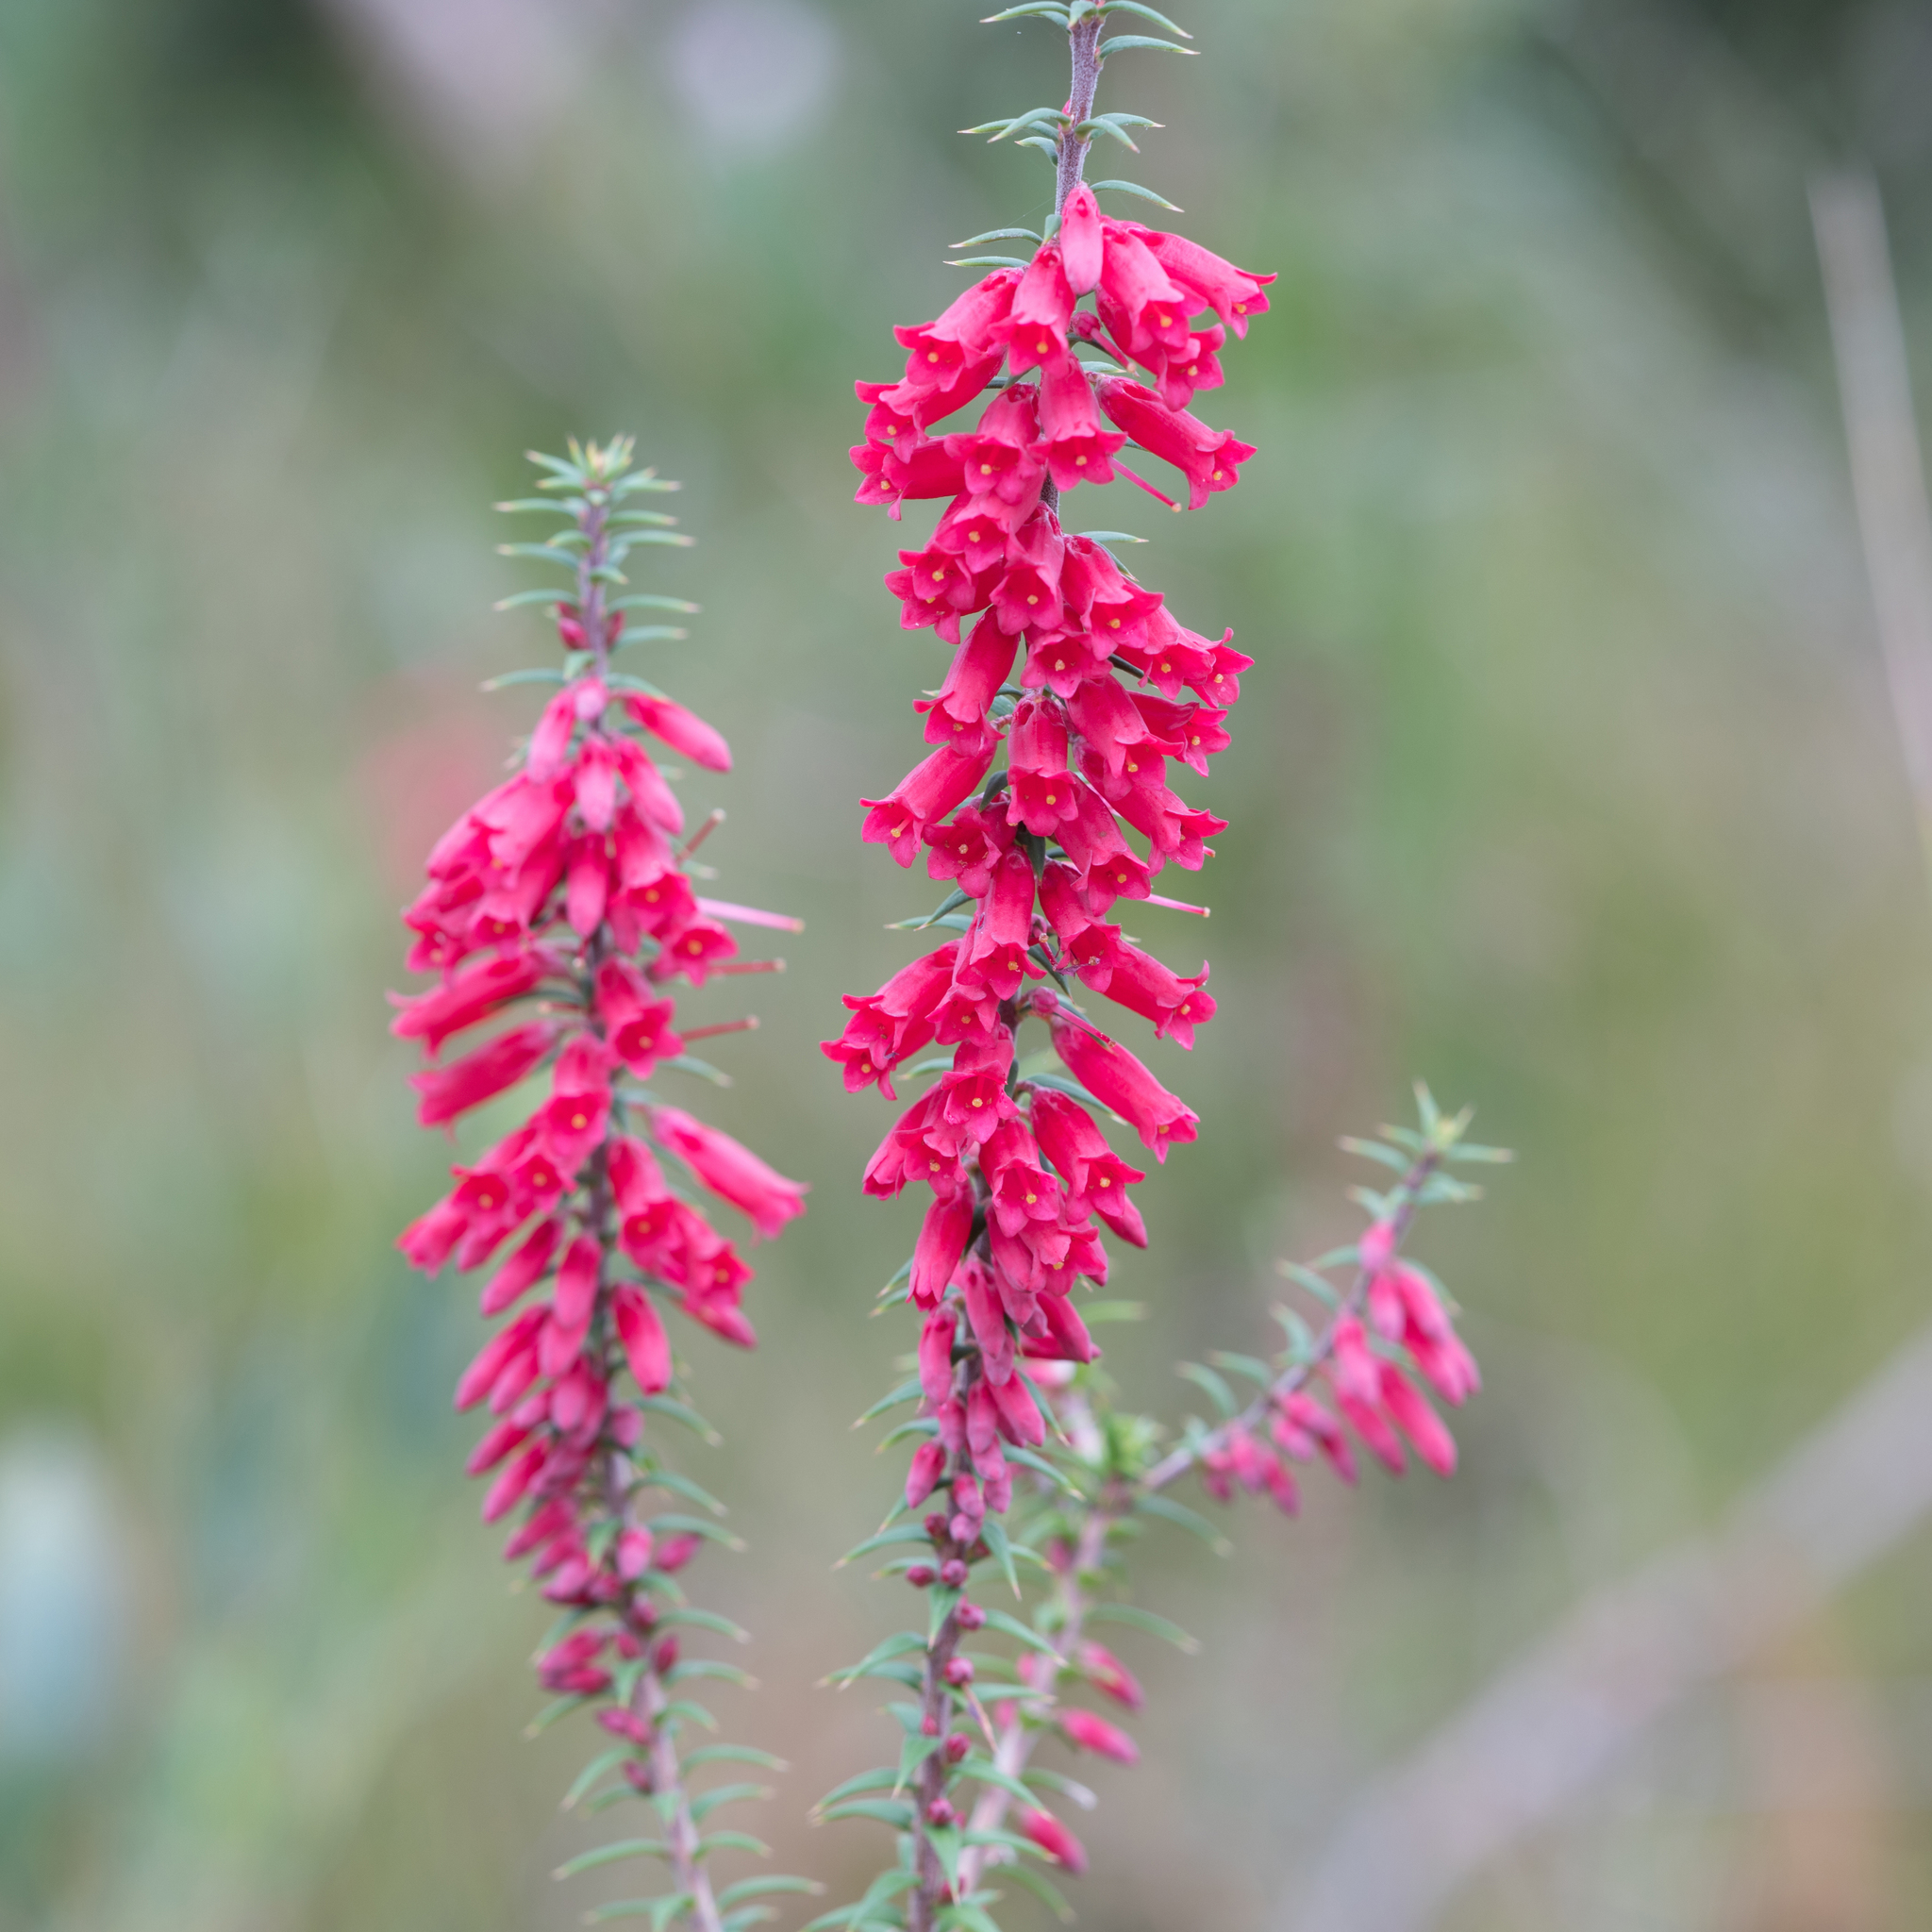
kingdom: Plantae
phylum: Tracheophyta
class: Magnoliopsida
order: Ericales
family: Ericaceae
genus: Epacris
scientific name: Epacris impressa
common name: Common-heath
